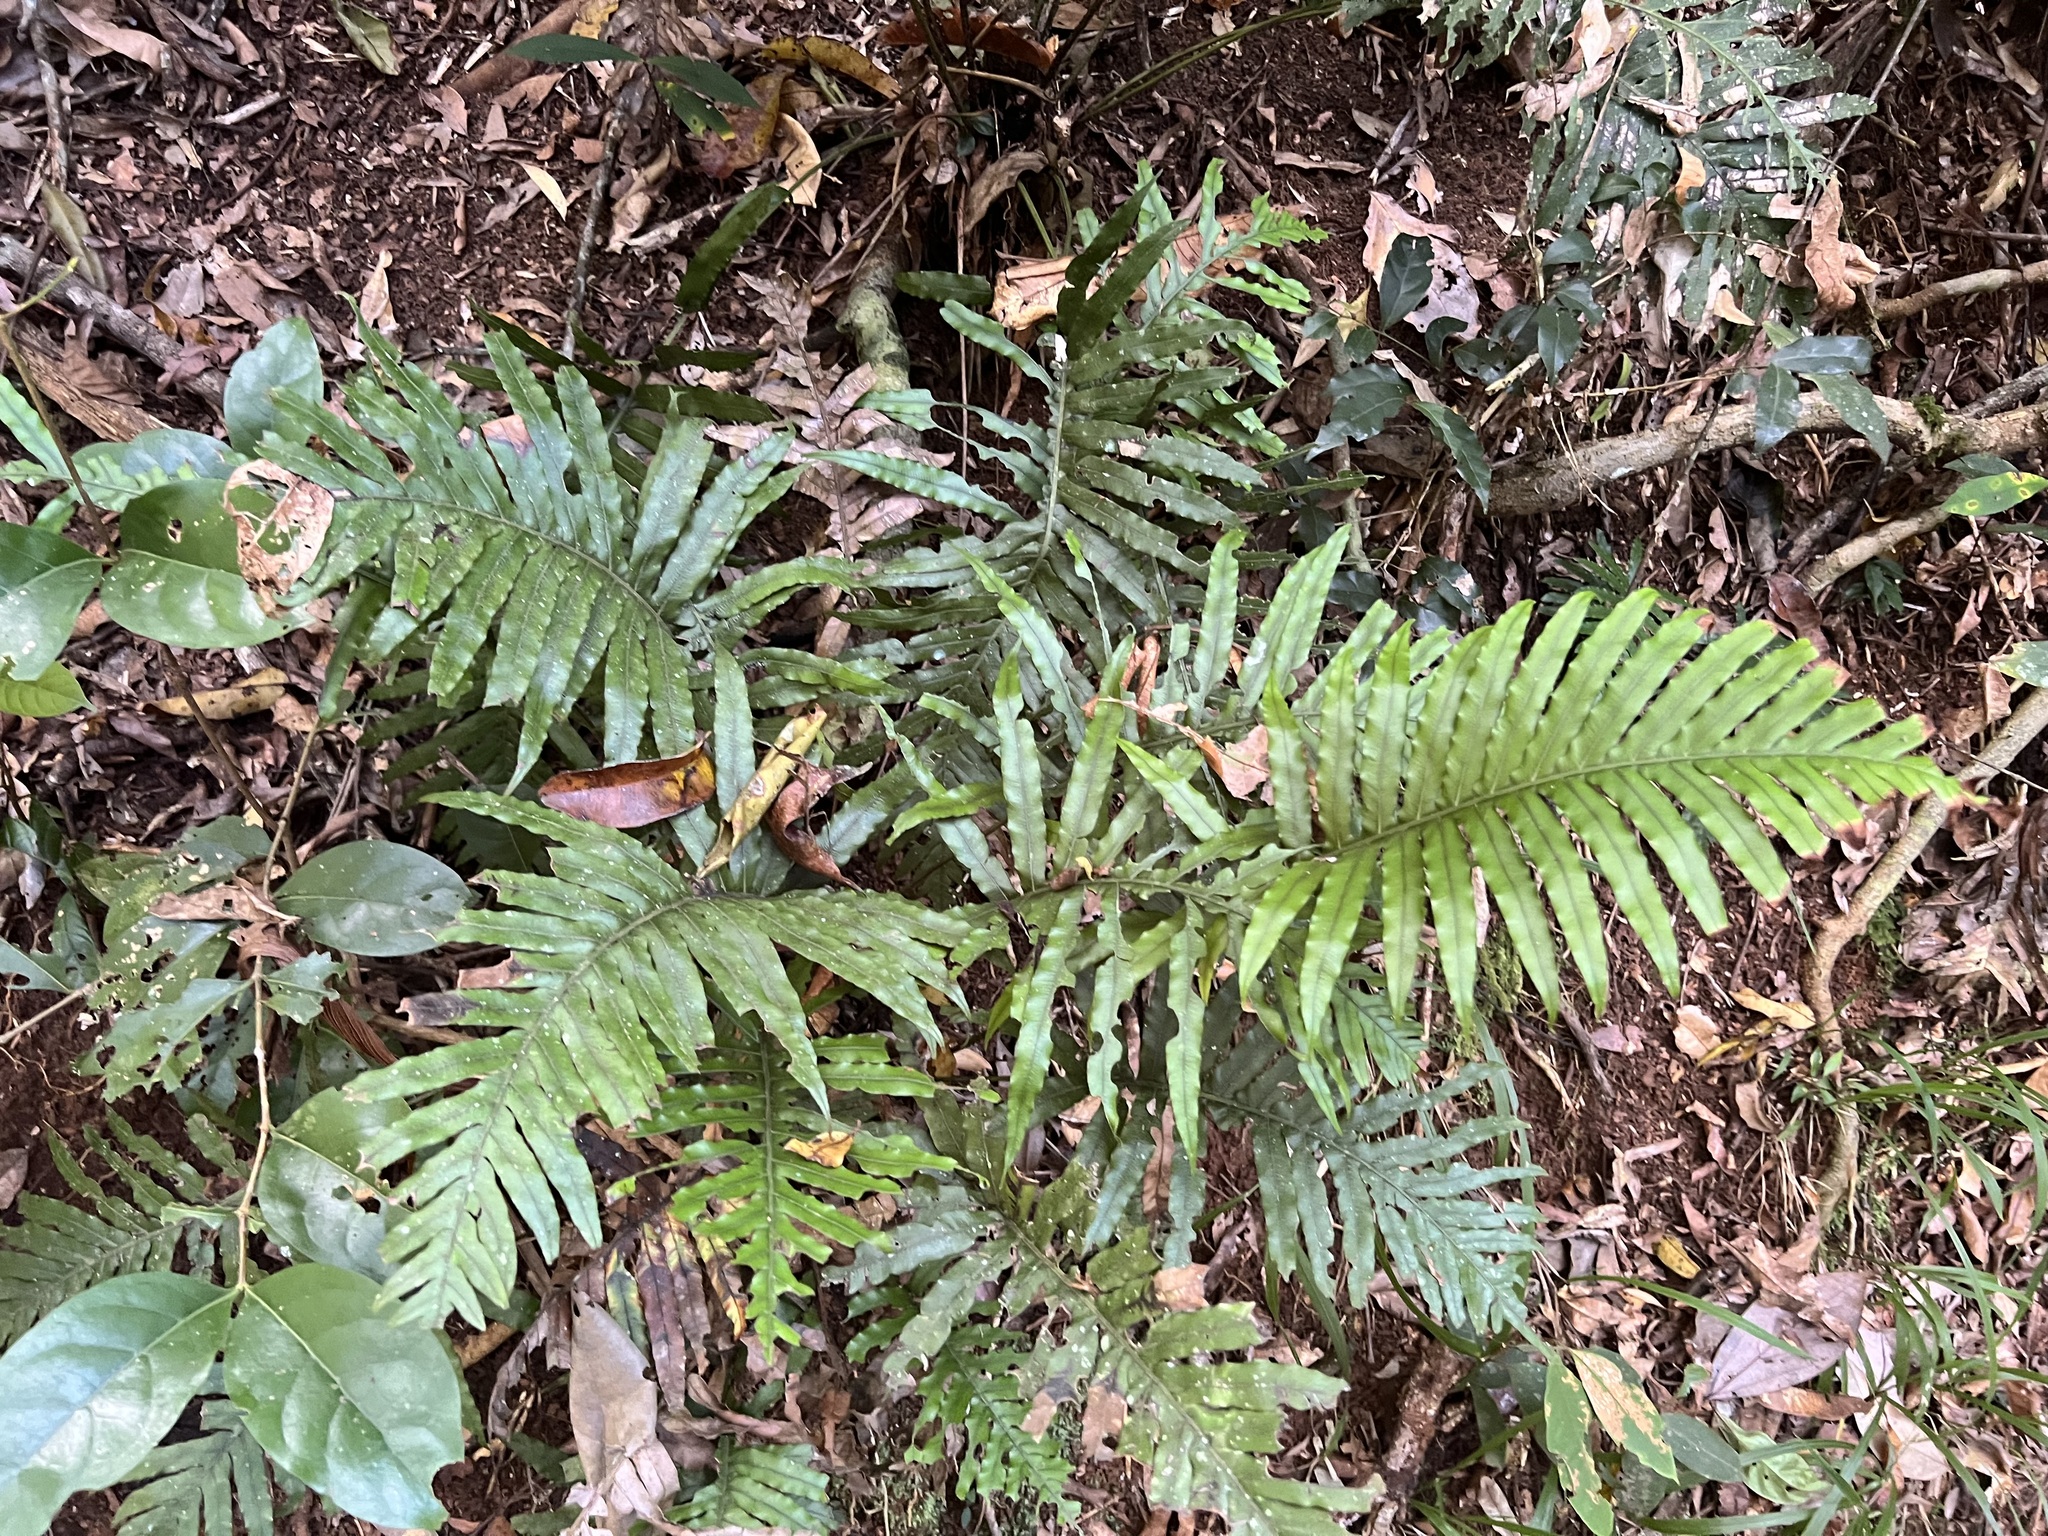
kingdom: Plantae
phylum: Tracheophyta
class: Polypodiopsida
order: Polypodiales
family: Blechnaceae
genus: Oceaniopteris
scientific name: Oceaniopteris cartilaginea
